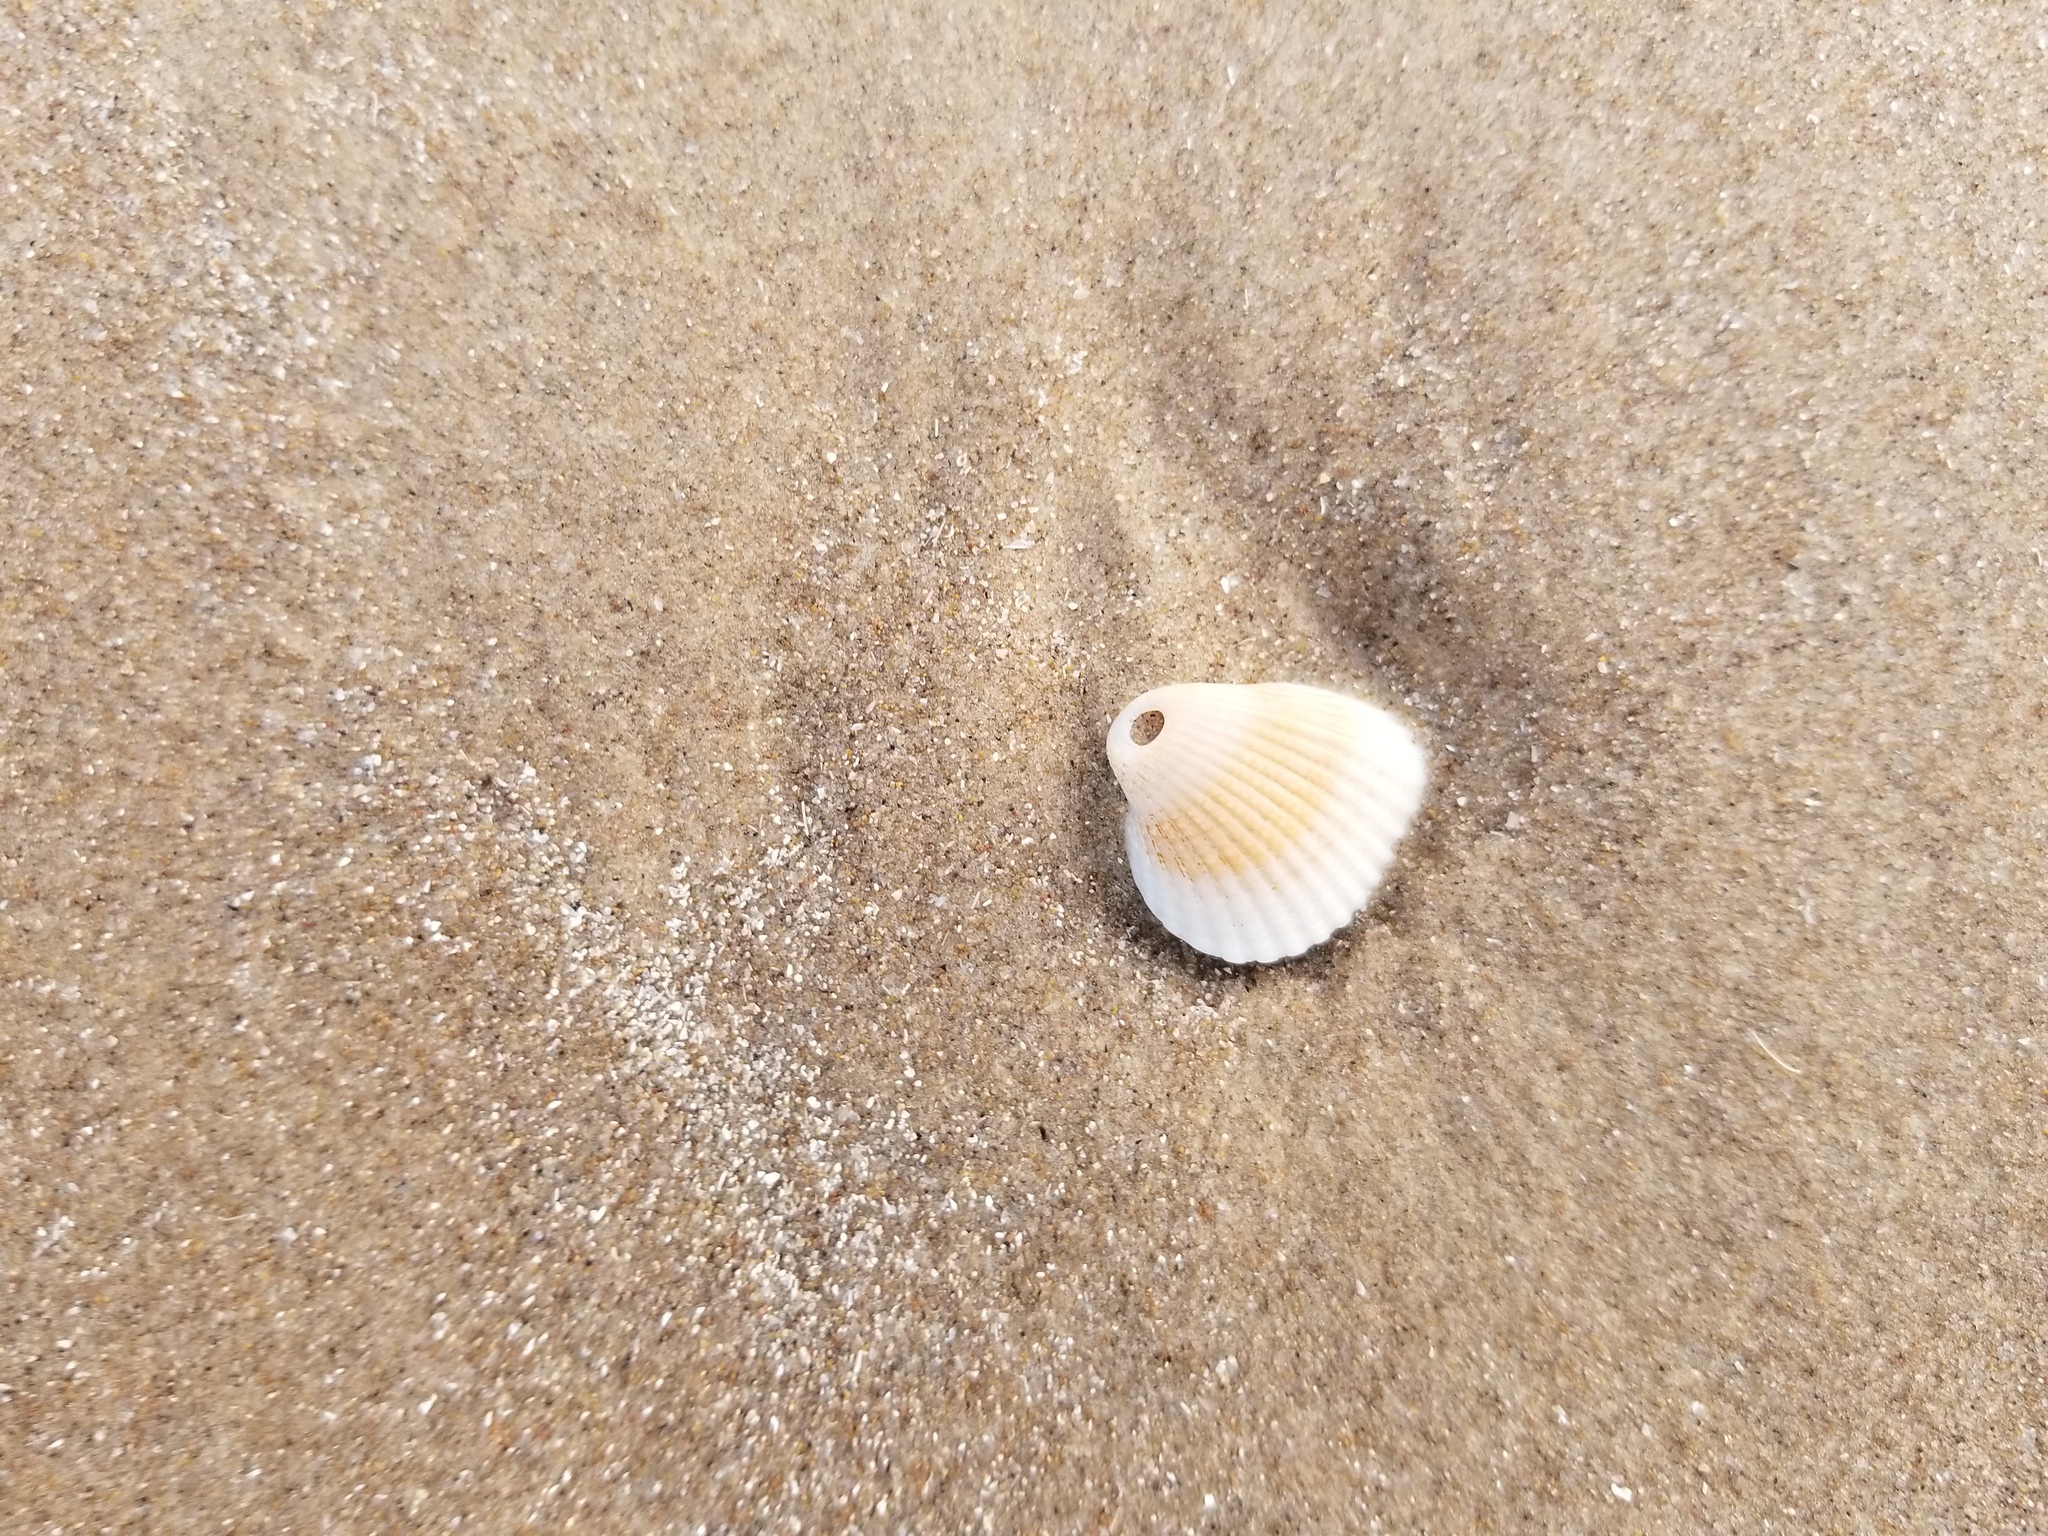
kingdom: Animalia
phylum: Mollusca
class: Bivalvia
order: Arcida
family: Arcidae
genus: Anadara
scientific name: Anadara chemnitzii
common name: Chemnitz's triangular ark
